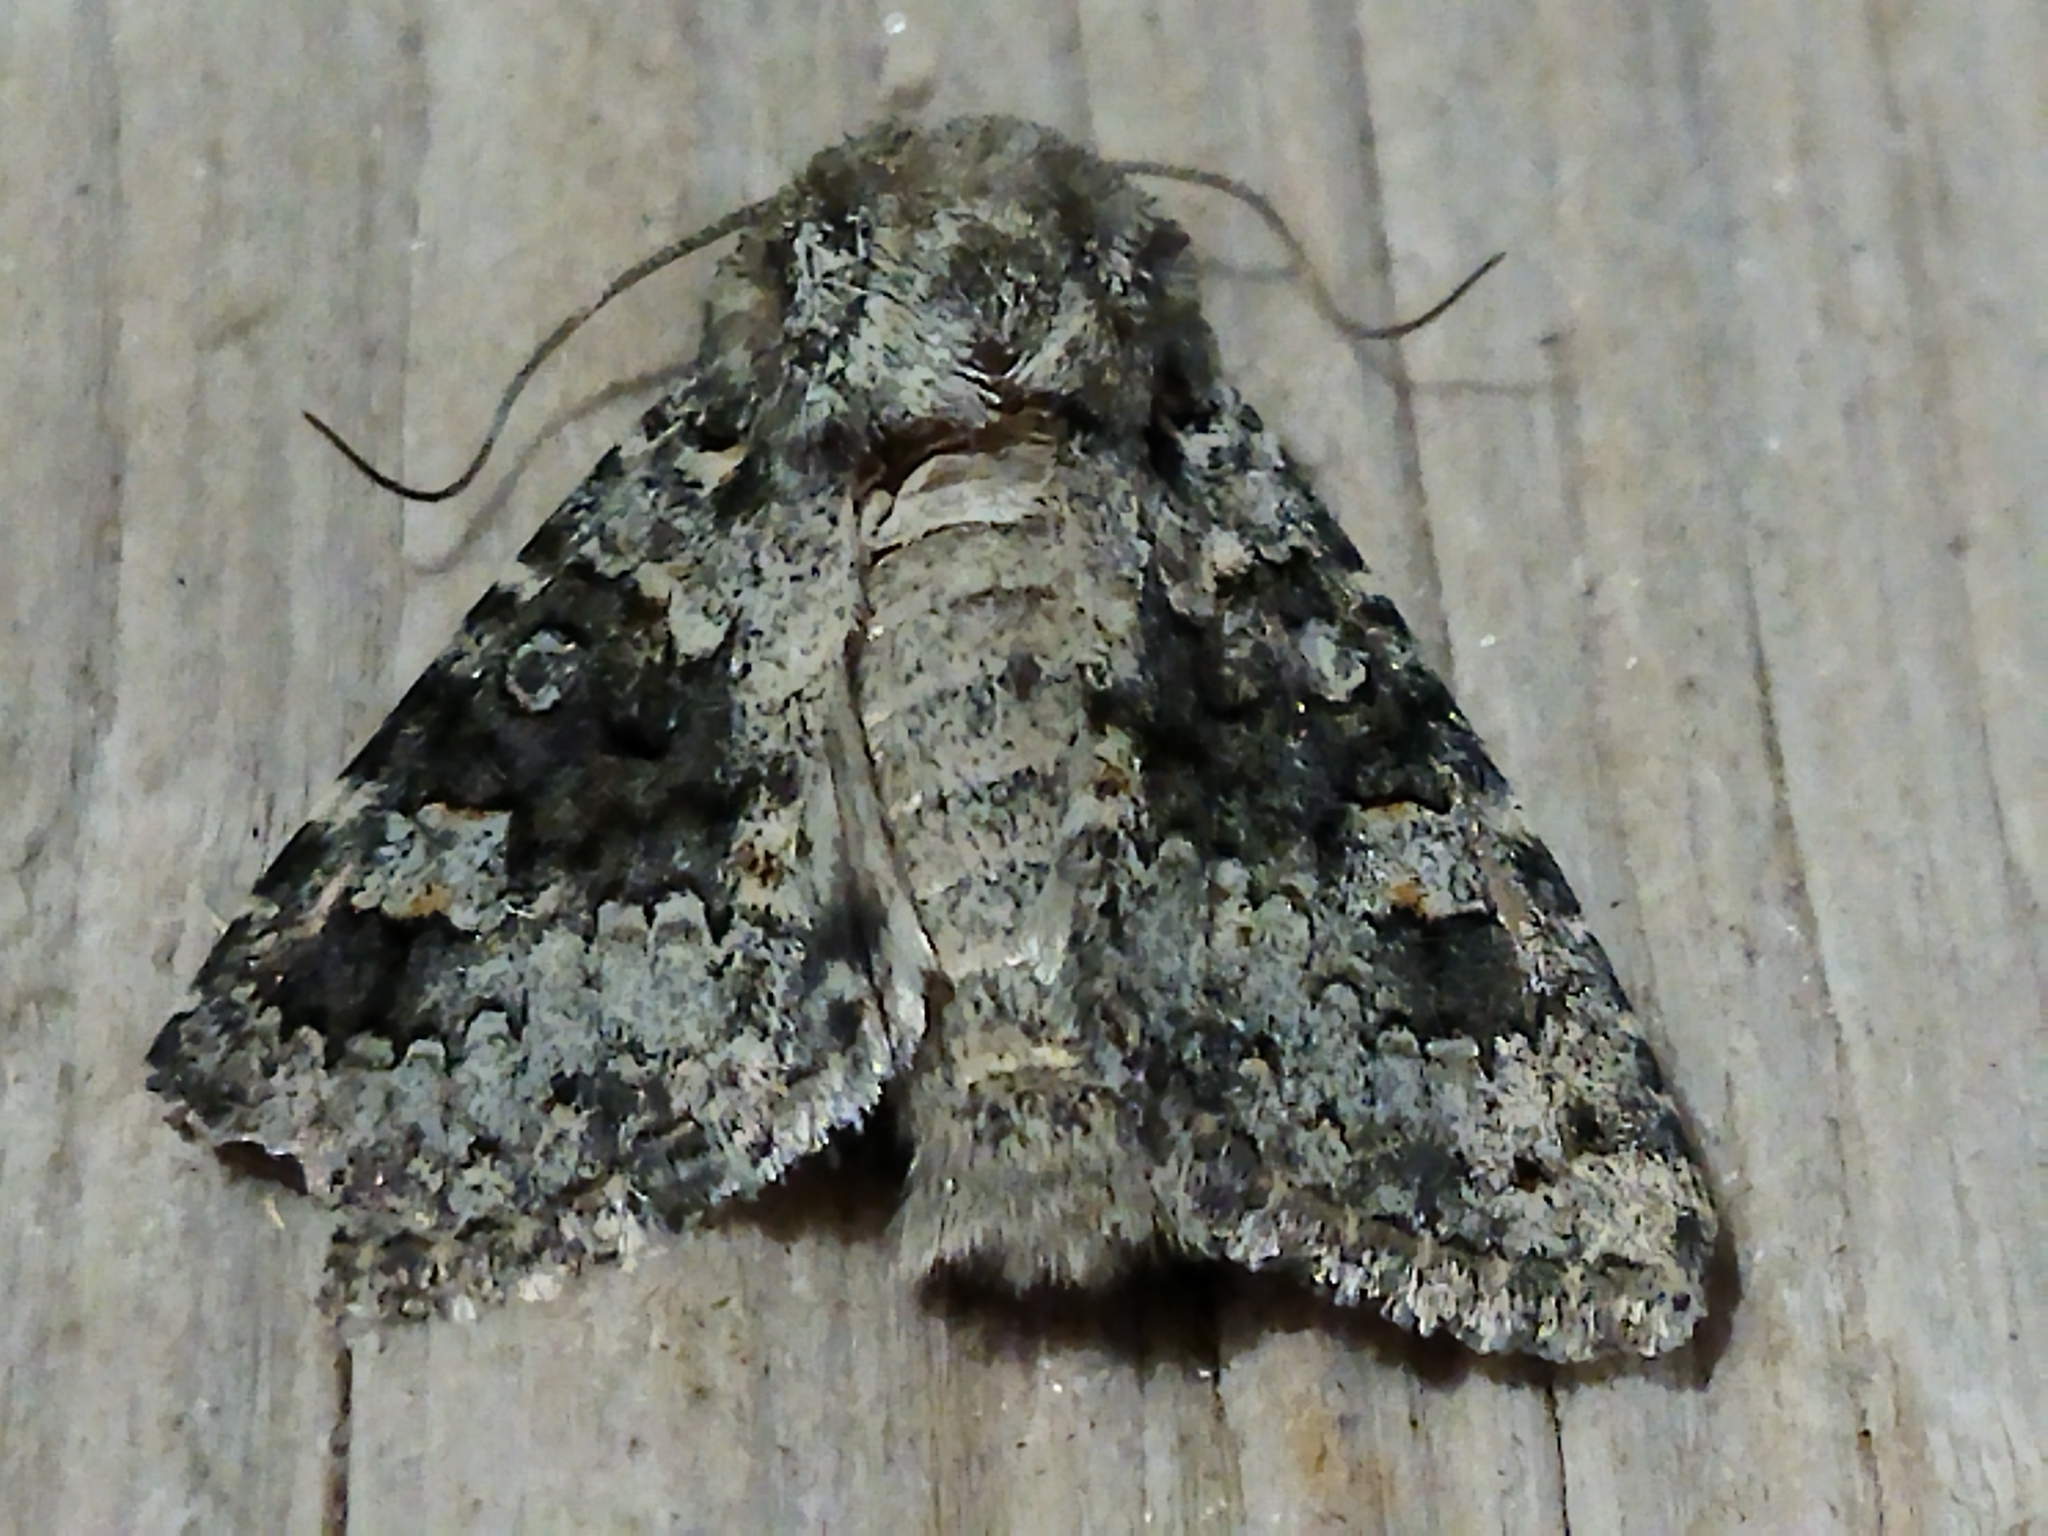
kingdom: Animalia
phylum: Arthropoda
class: Insecta
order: Lepidoptera
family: Noctuidae
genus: Hecatera
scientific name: Hecatera dysodea
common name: Small ranunculus
